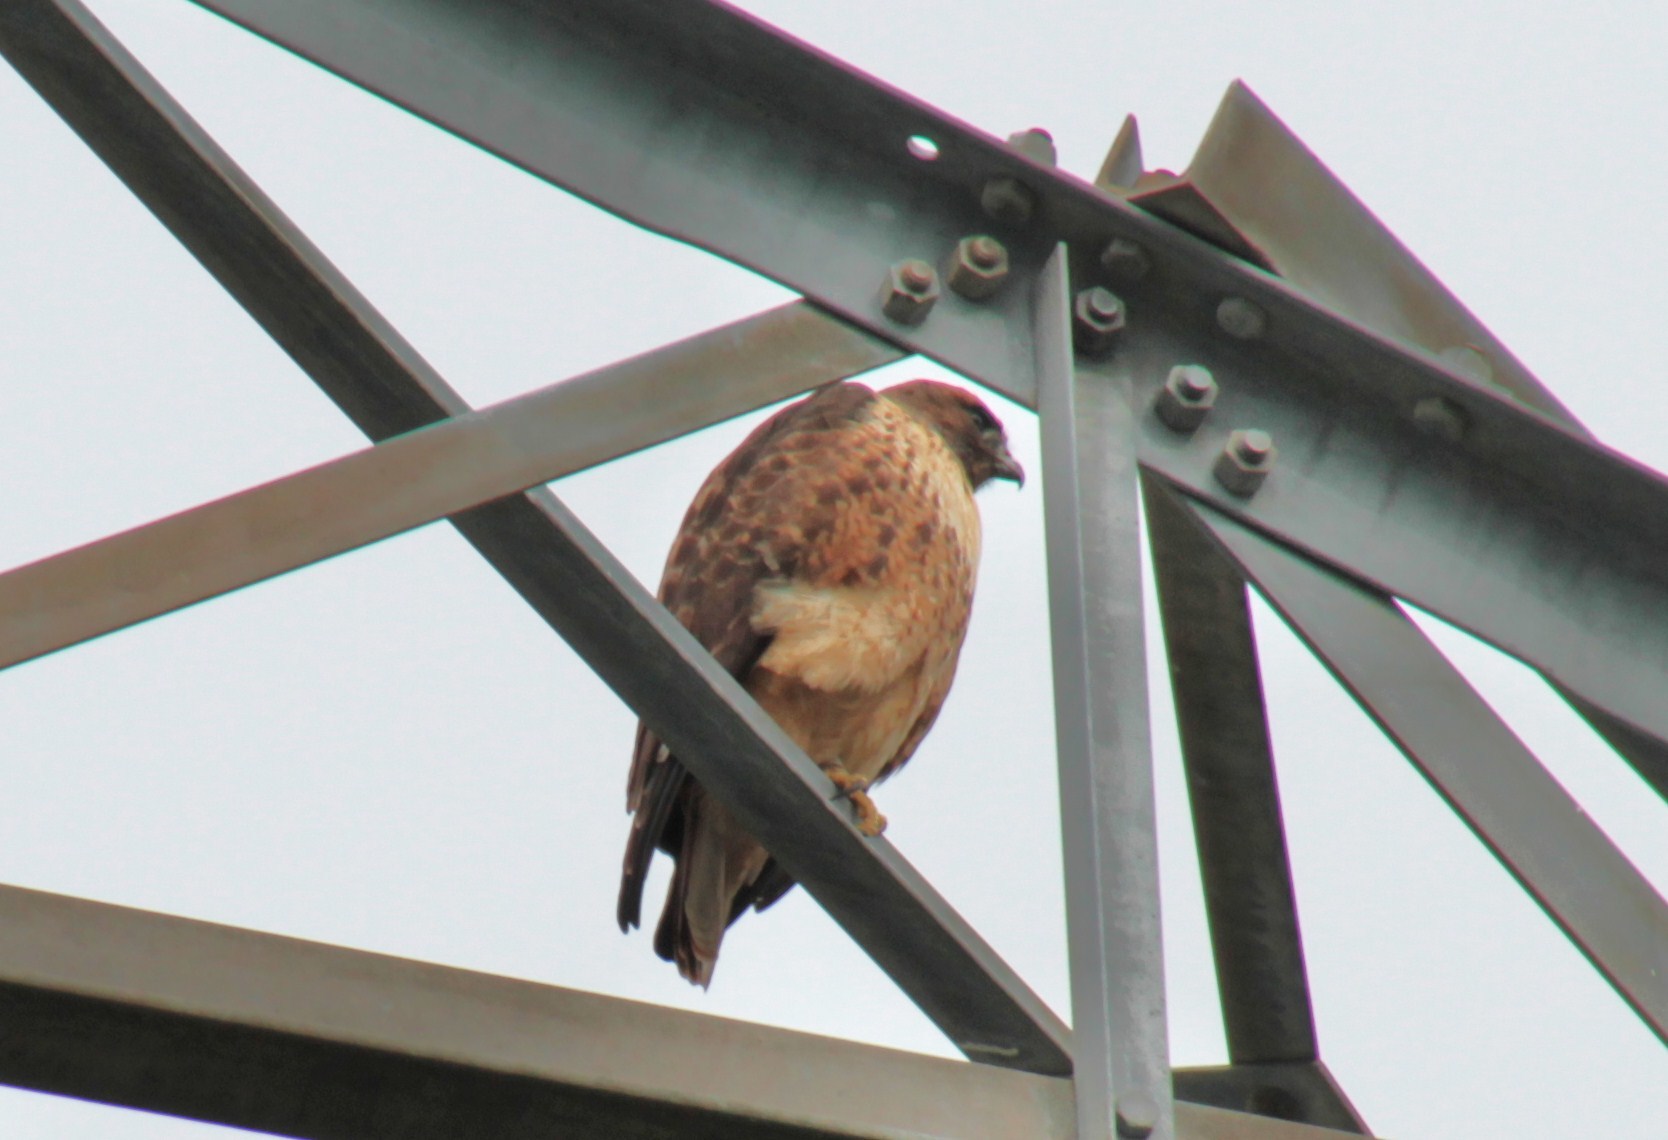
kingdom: Animalia
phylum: Chordata
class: Aves
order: Accipitriformes
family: Accipitridae
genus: Buteo
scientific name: Buteo jamaicensis
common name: Red-tailed hawk
